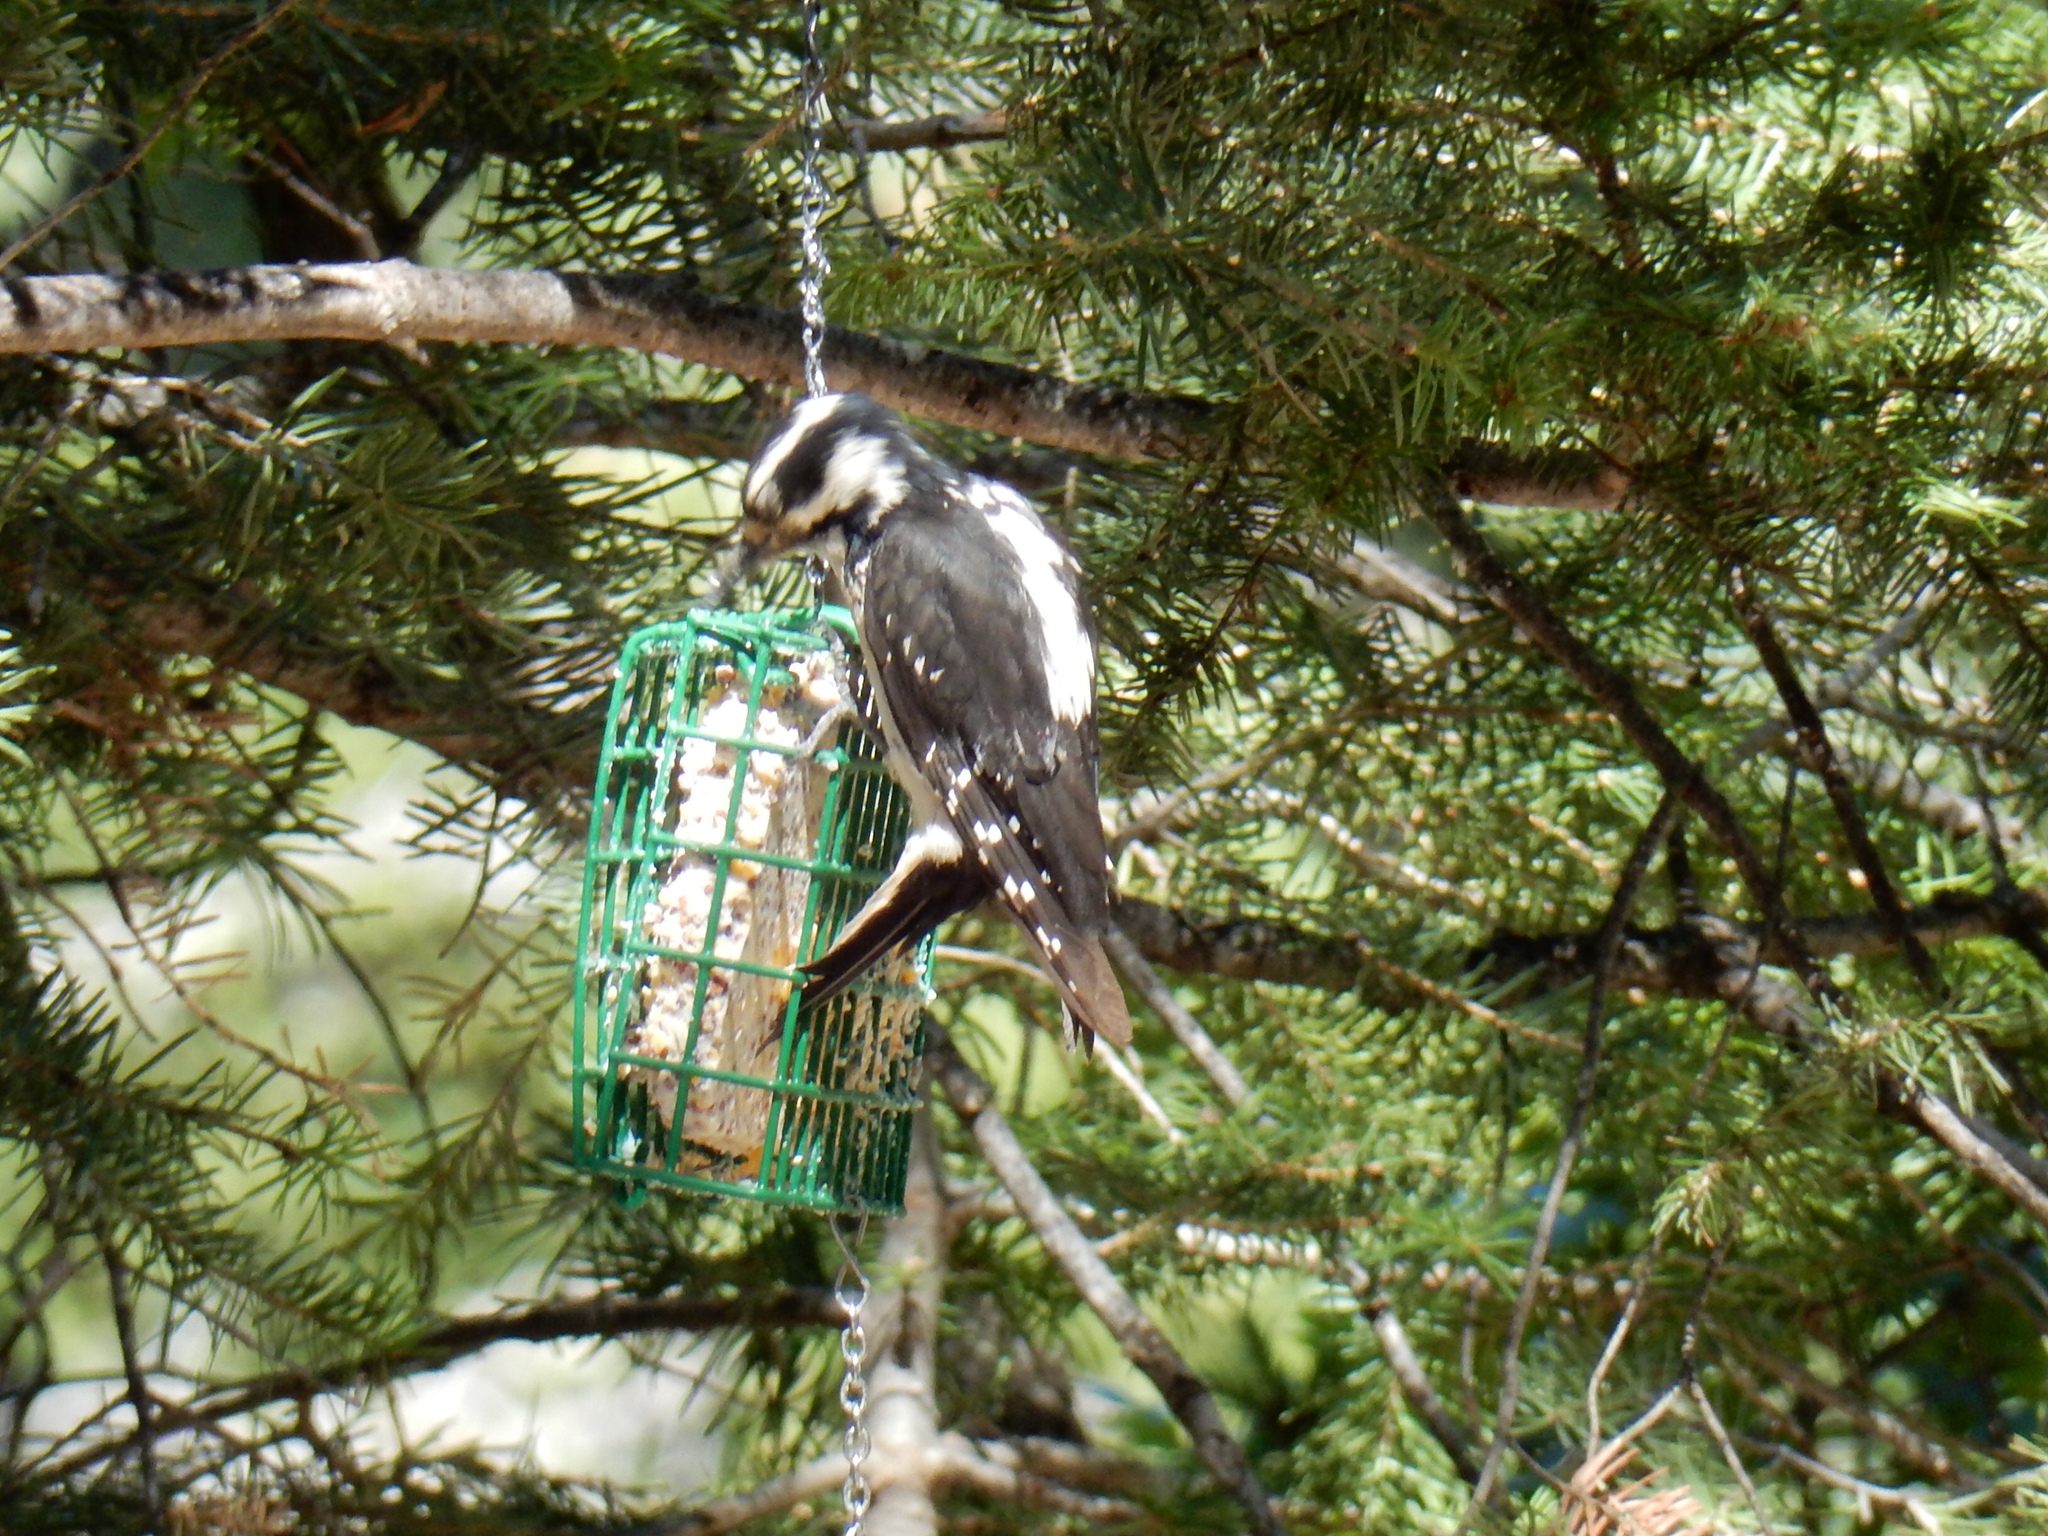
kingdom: Animalia
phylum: Chordata
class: Aves
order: Piciformes
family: Picidae
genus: Leuconotopicus
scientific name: Leuconotopicus villosus
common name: Hairy woodpecker
